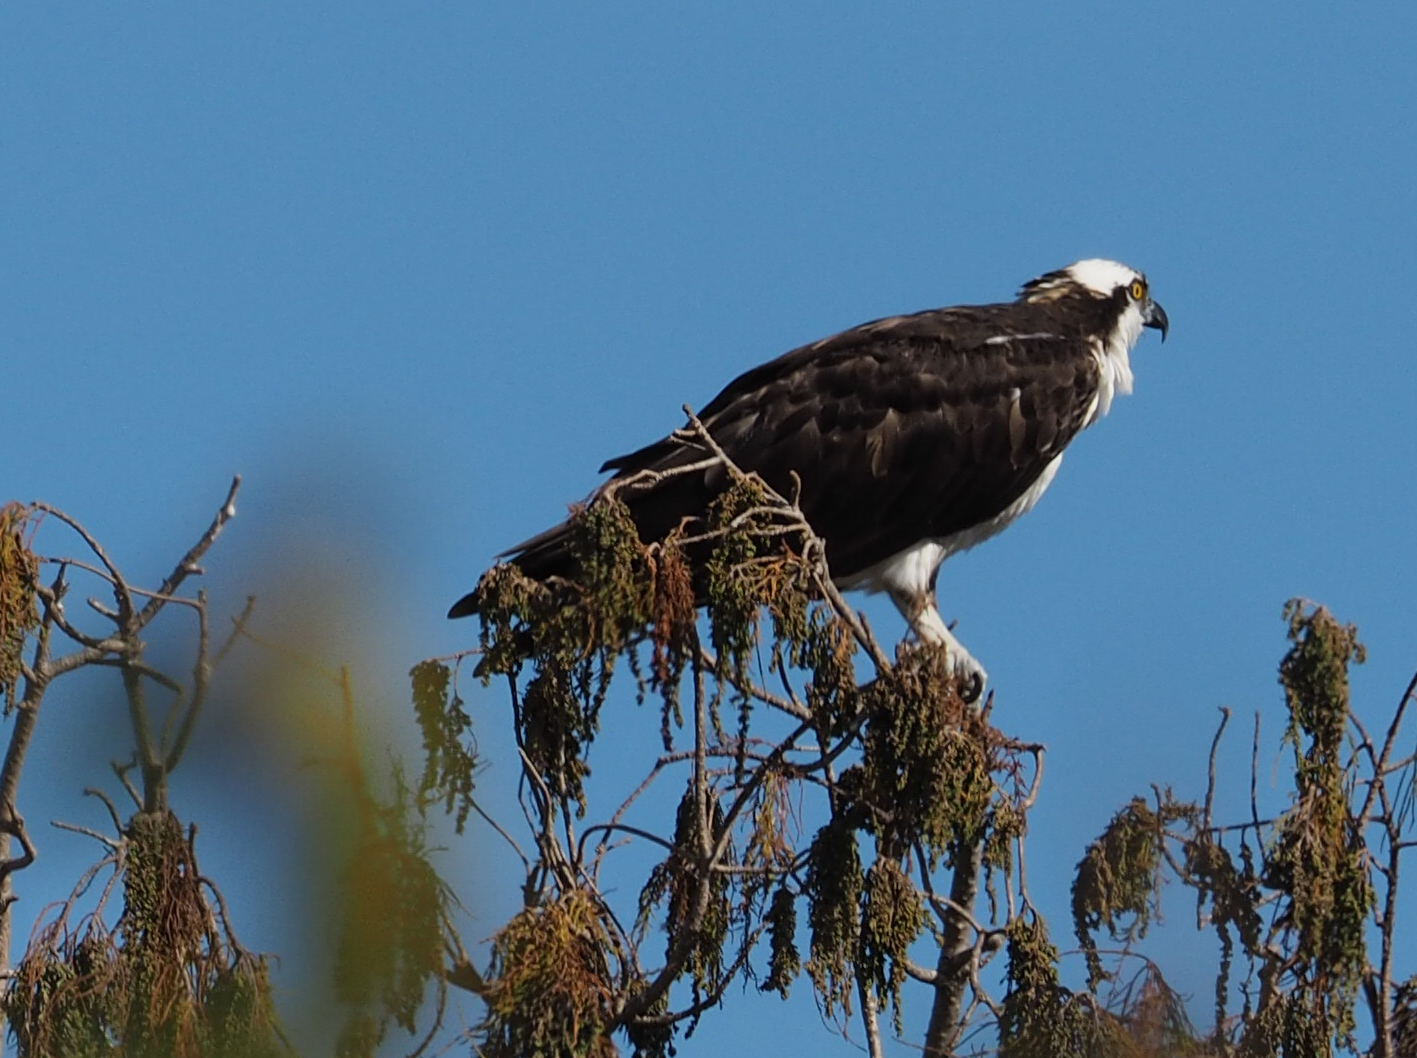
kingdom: Animalia
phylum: Chordata
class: Aves
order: Accipitriformes
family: Pandionidae
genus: Pandion
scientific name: Pandion haliaetus
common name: Osprey
